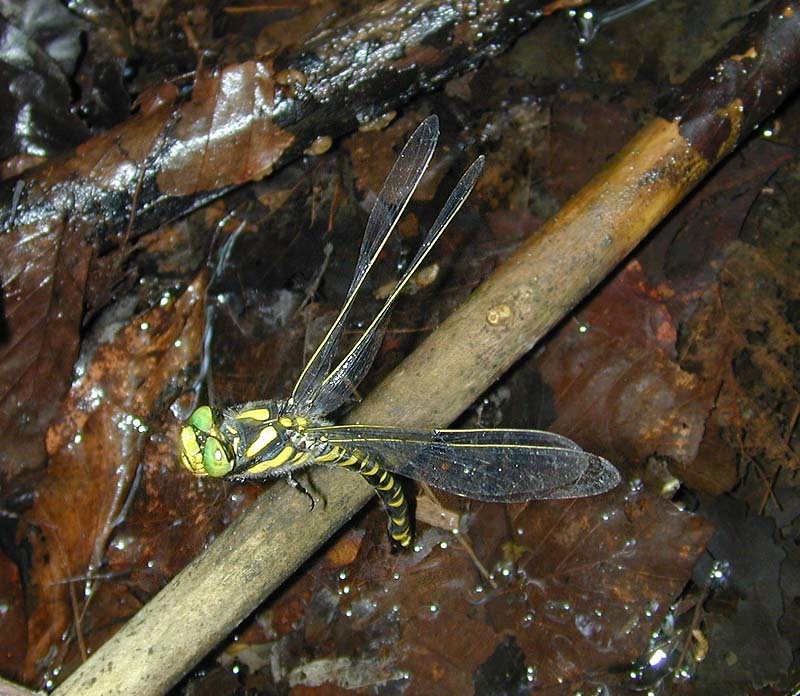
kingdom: Animalia
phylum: Arthropoda
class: Insecta
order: Odonata
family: Cordulegastridae
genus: Cordulegaster
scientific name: Cordulegaster boltonii
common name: Golden-ringed dragonfly
